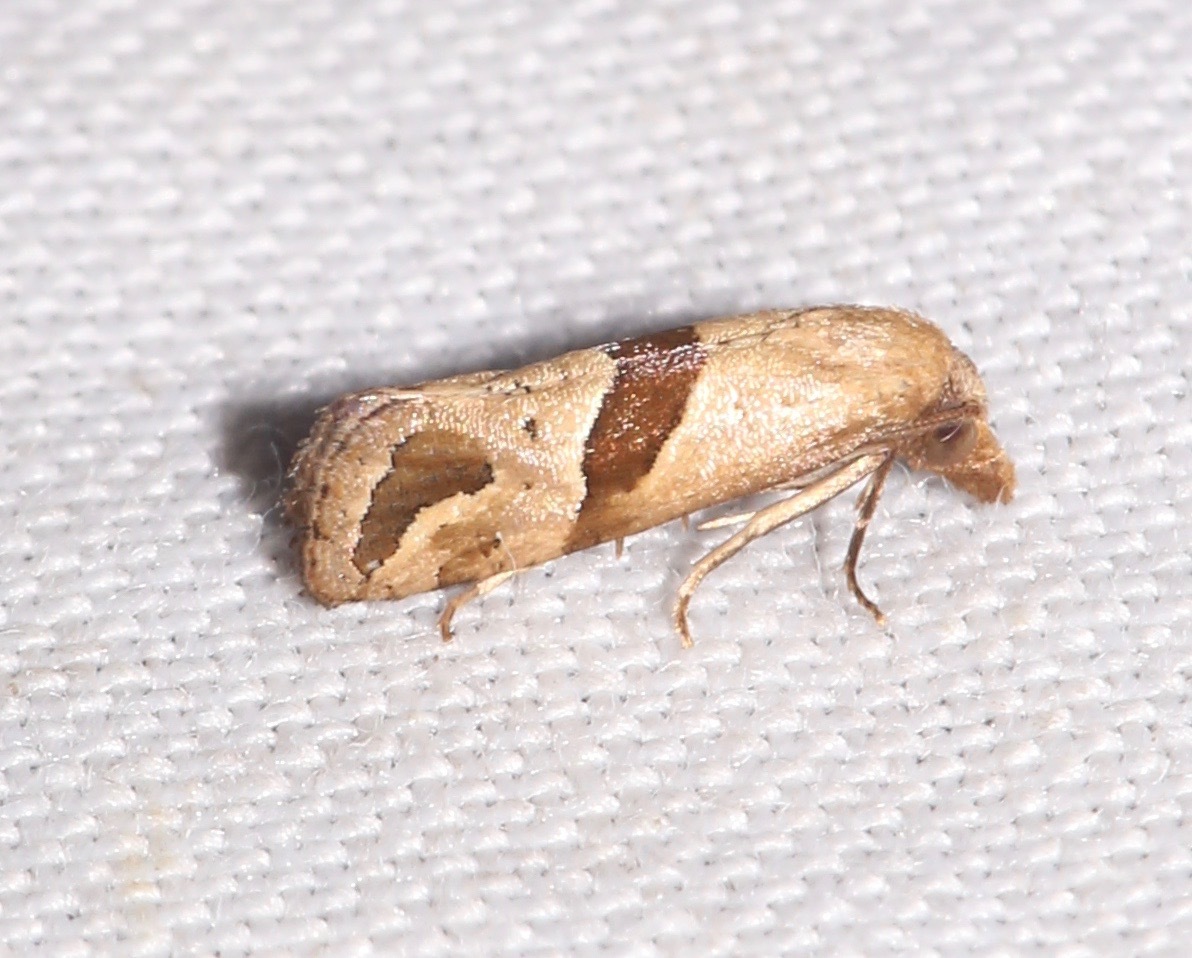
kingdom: Animalia
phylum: Arthropoda
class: Insecta
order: Lepidoptera
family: Tortricidae
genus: Eugnosta
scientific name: Eugnosta sartana
